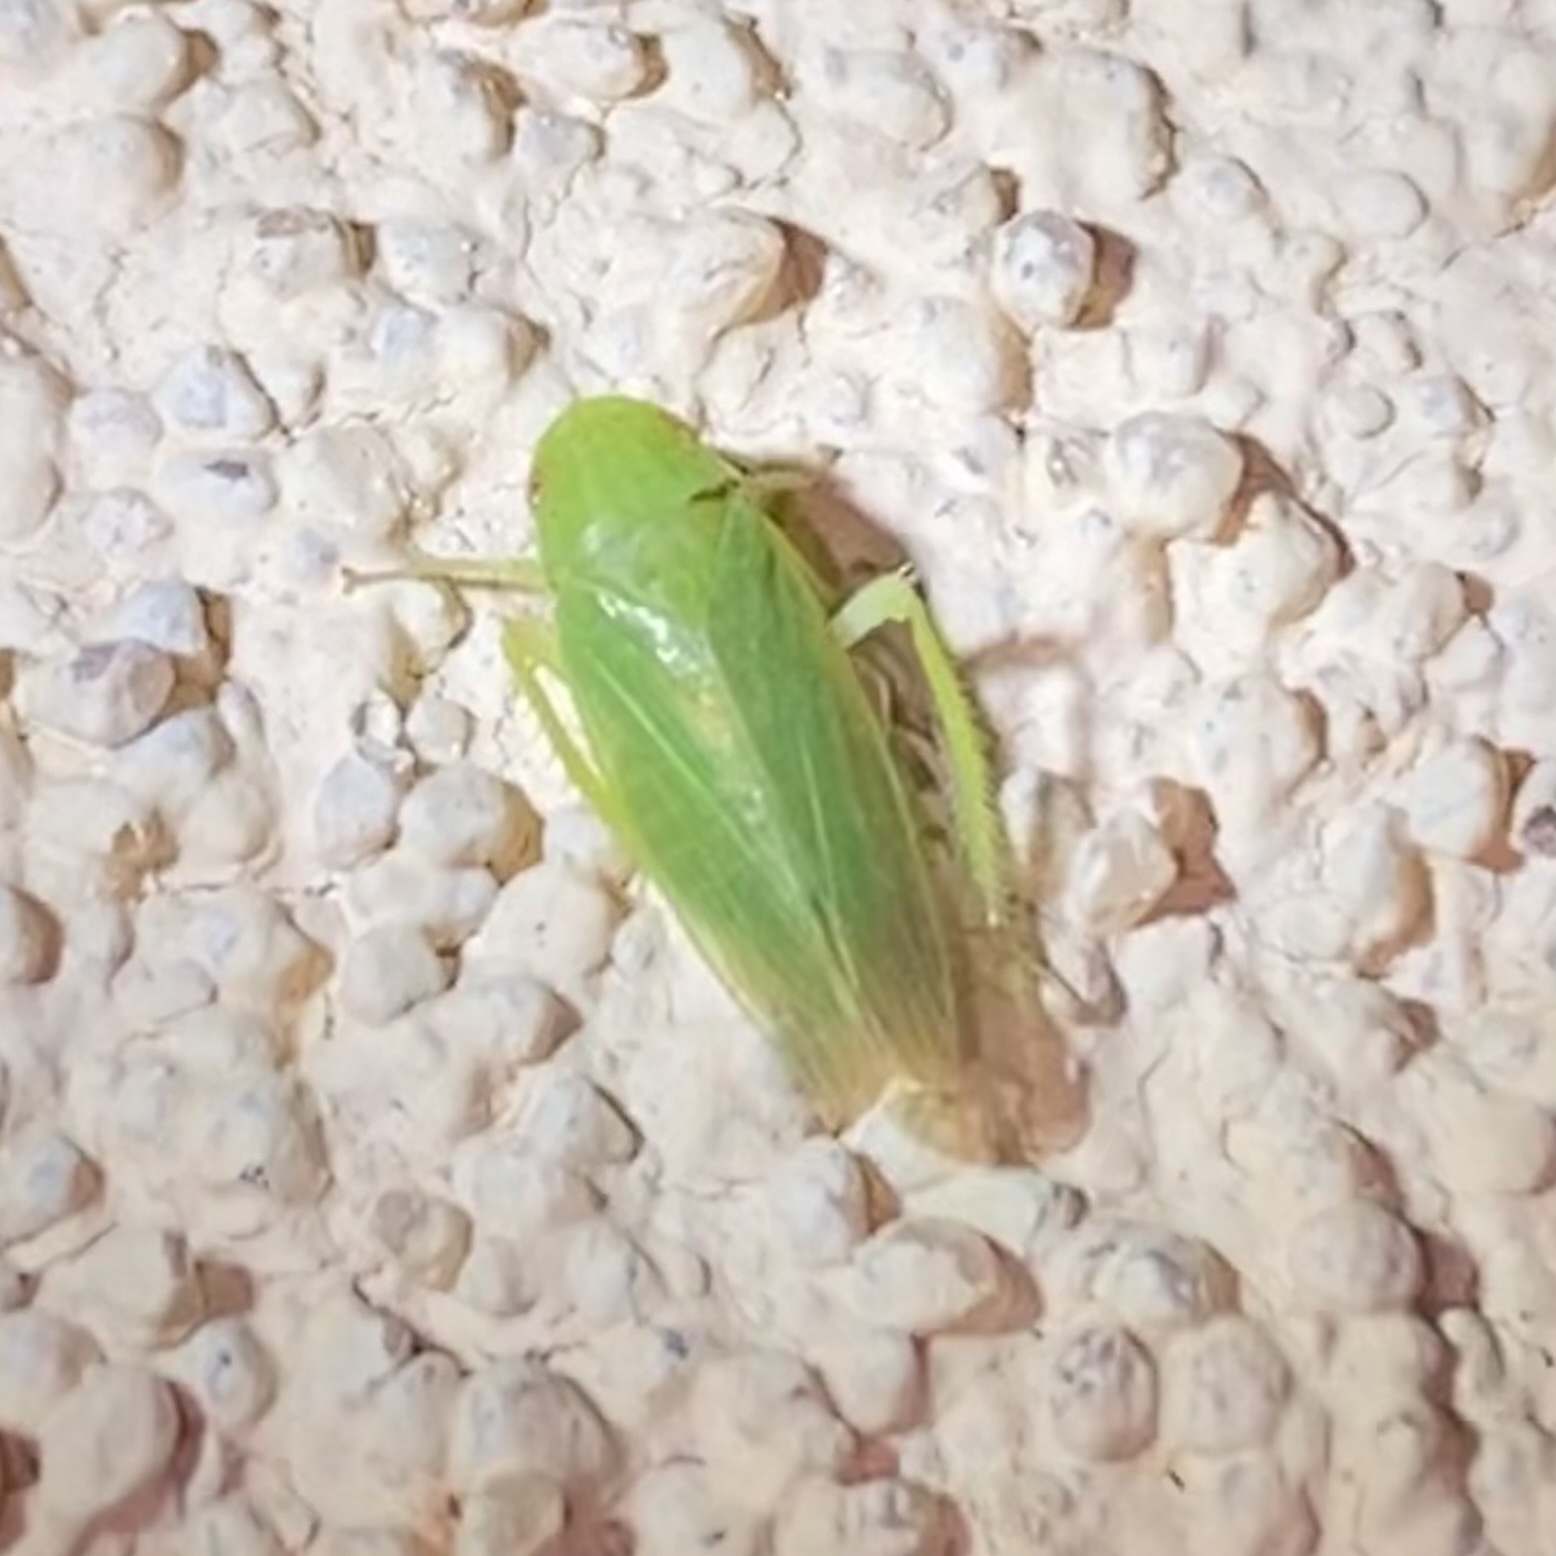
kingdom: Animalia
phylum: Arthropoda
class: Insecta
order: Hemiptera
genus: Obtusana
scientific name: Obtusana
